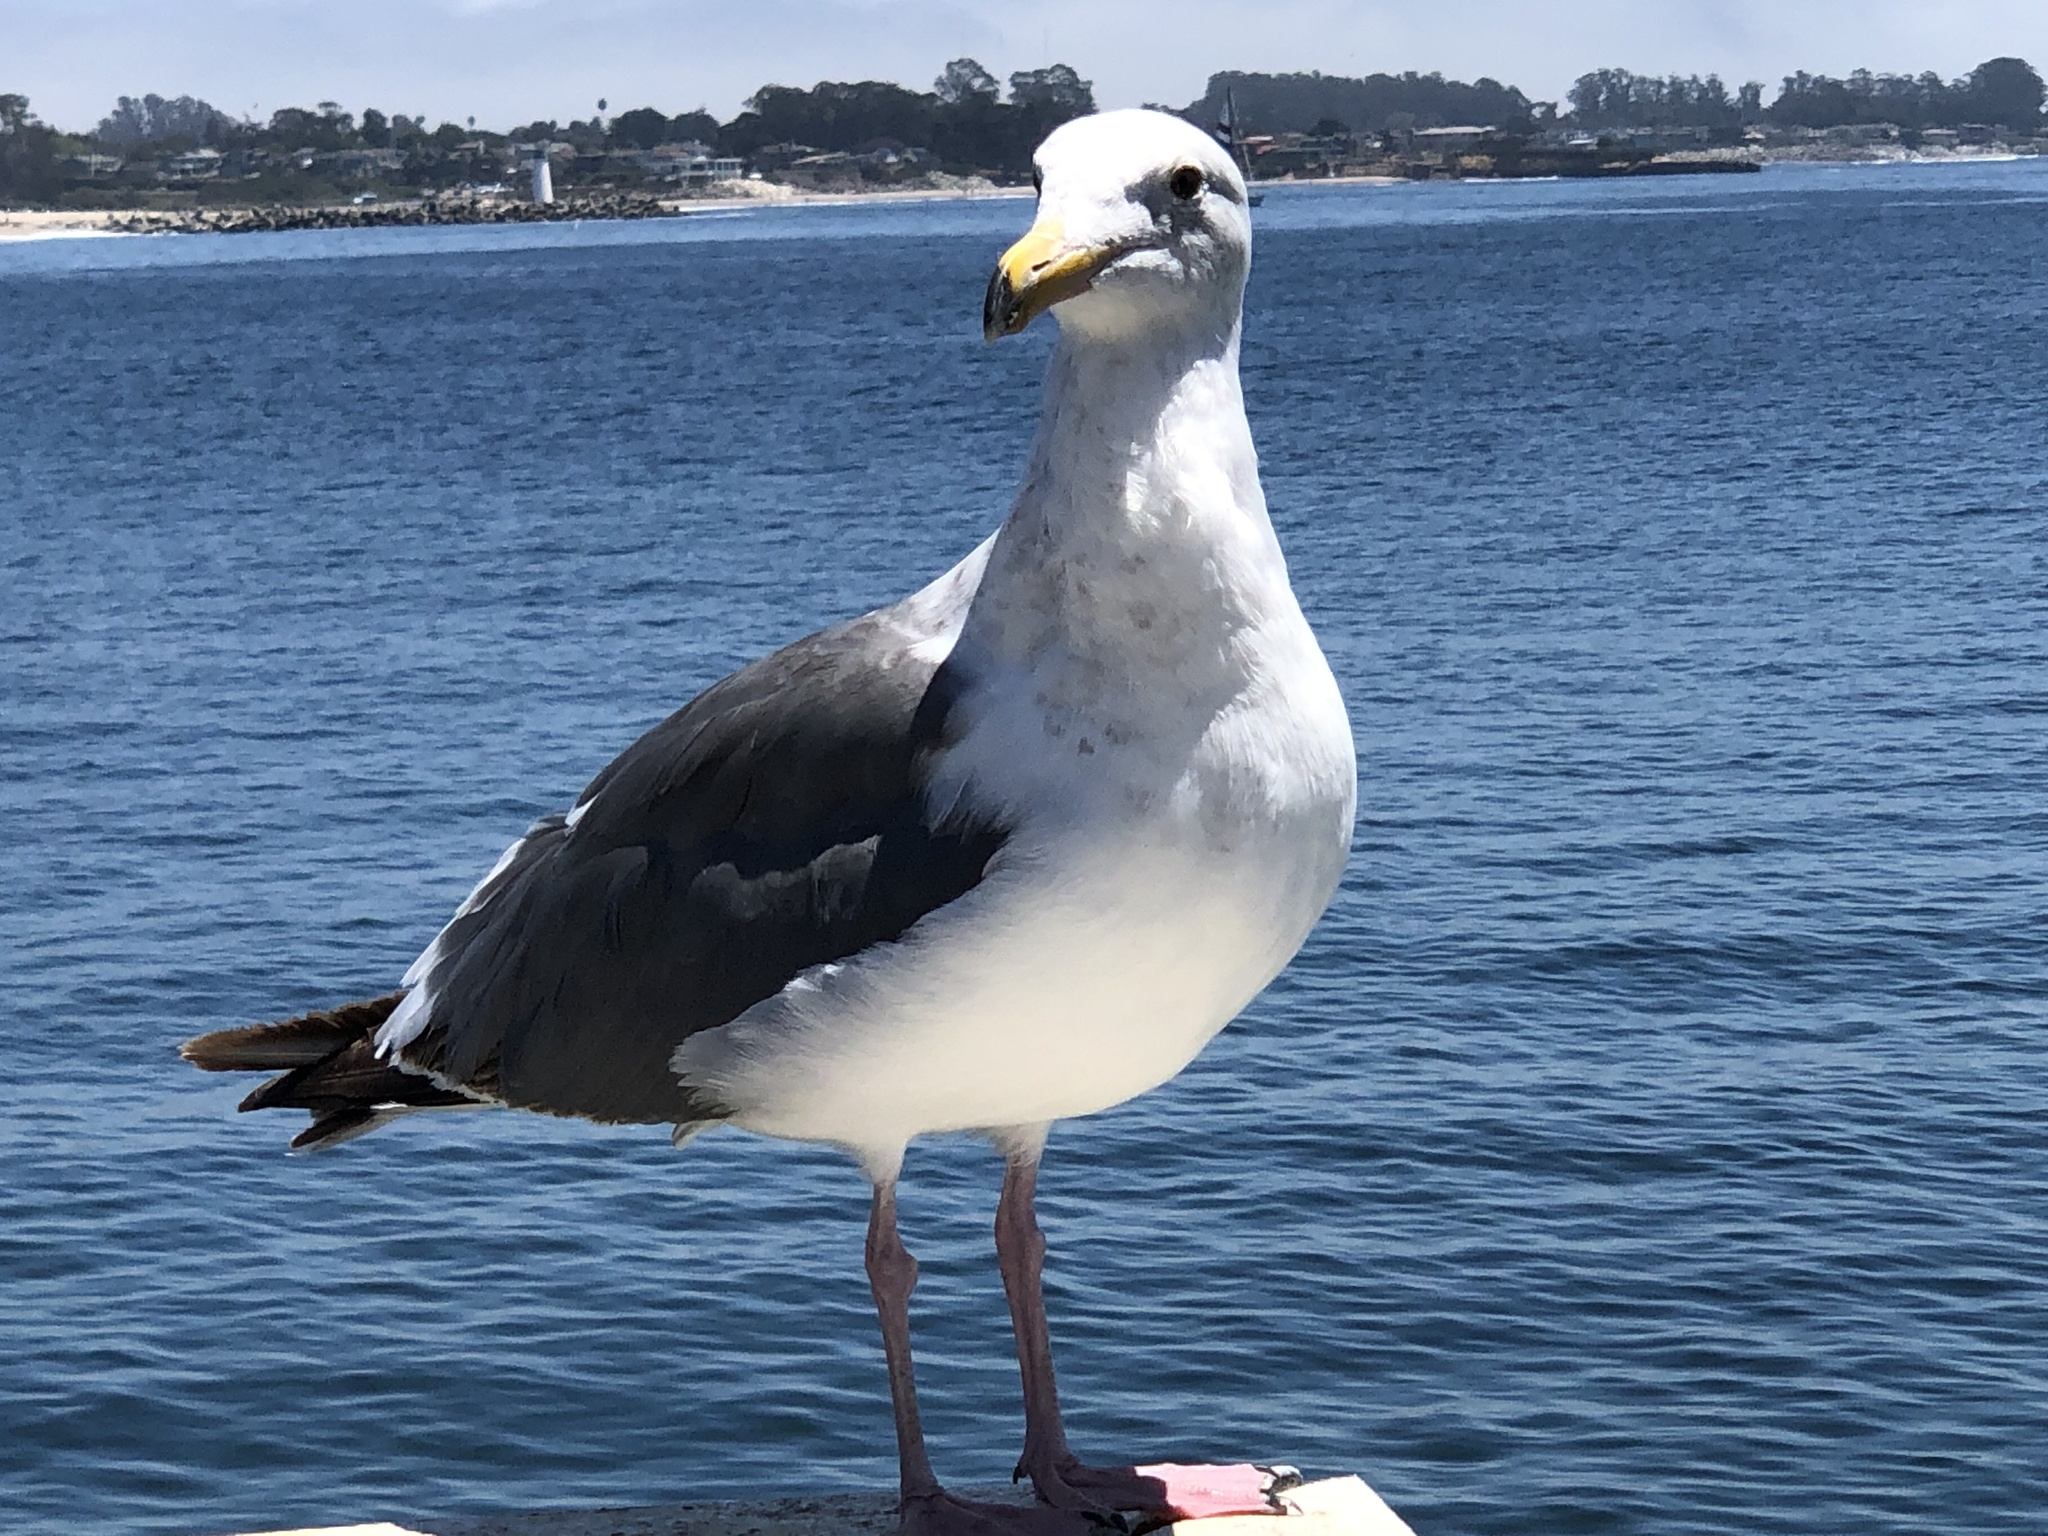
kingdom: Animalia
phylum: Chordata
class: Aves
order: Charadriiformes
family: Laridae
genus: Larus
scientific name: Larus occidentalis
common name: Western gull
